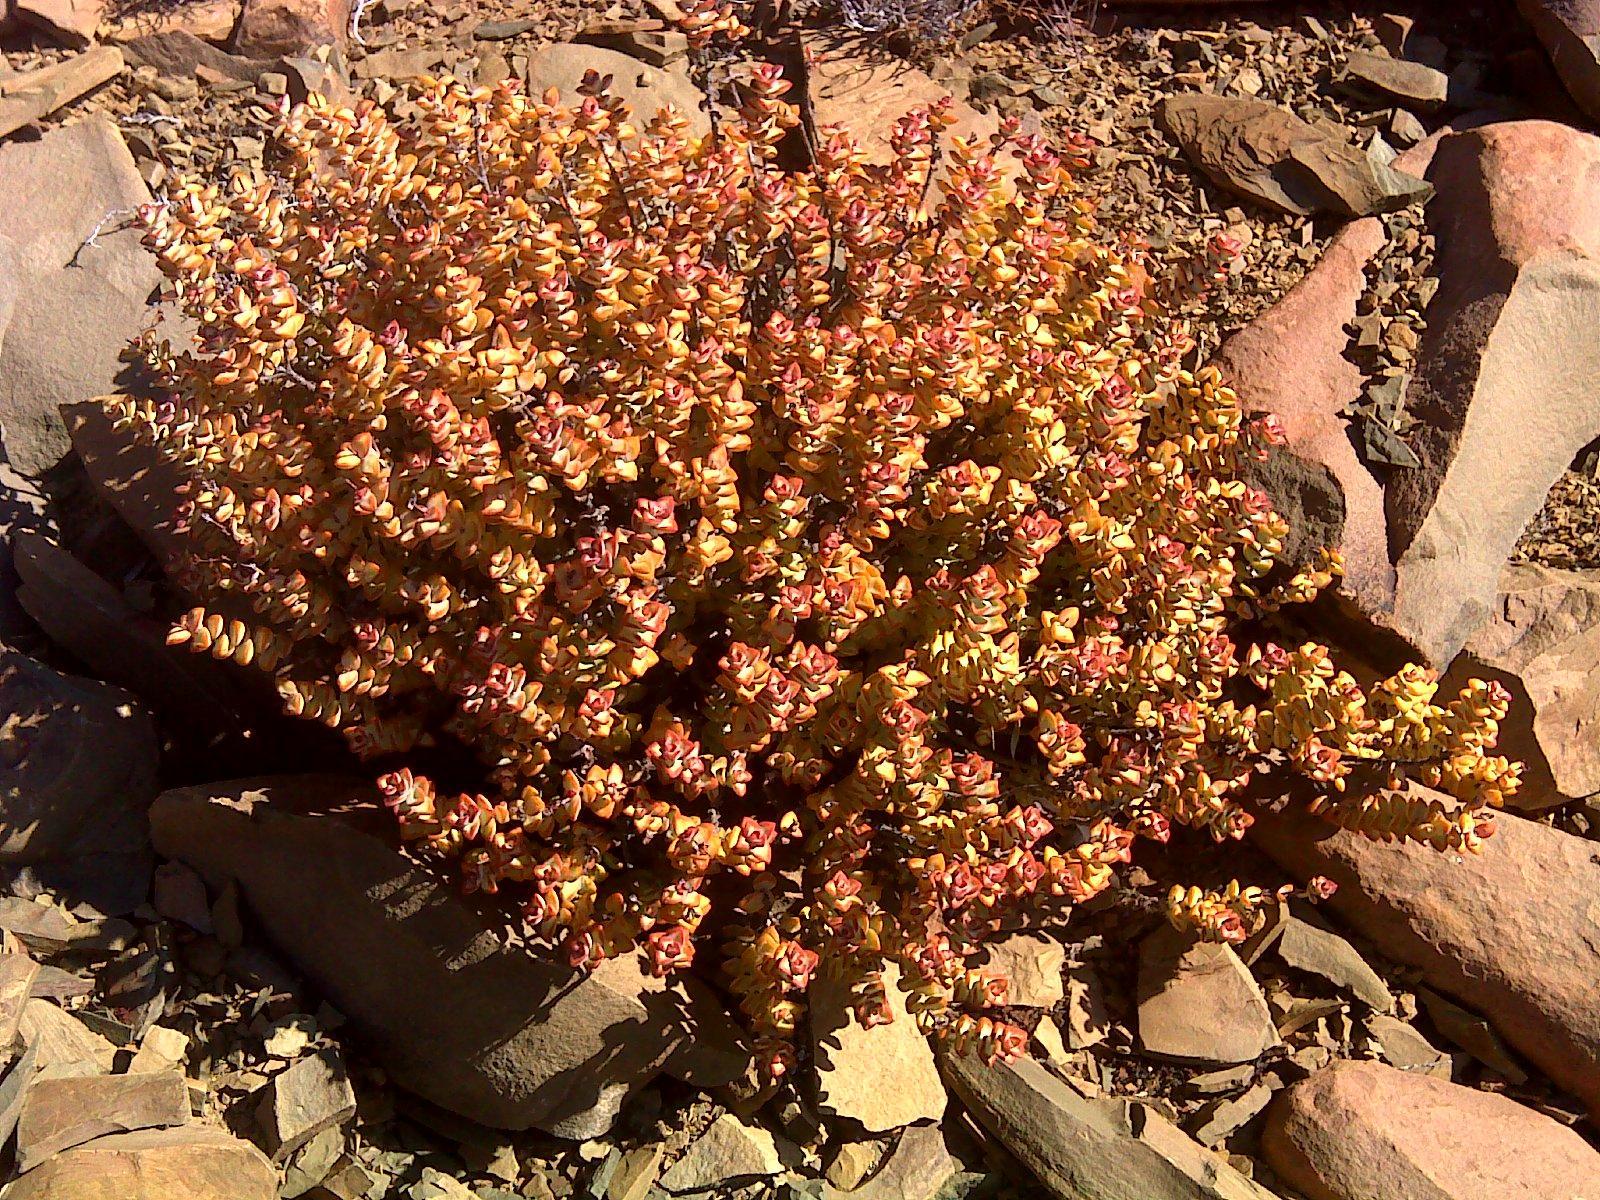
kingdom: Plantae
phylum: Tracheophyta
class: Magnoliopsida
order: Saxifragales
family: Crassulaceae
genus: Crassula
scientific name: Crassula rupestris
